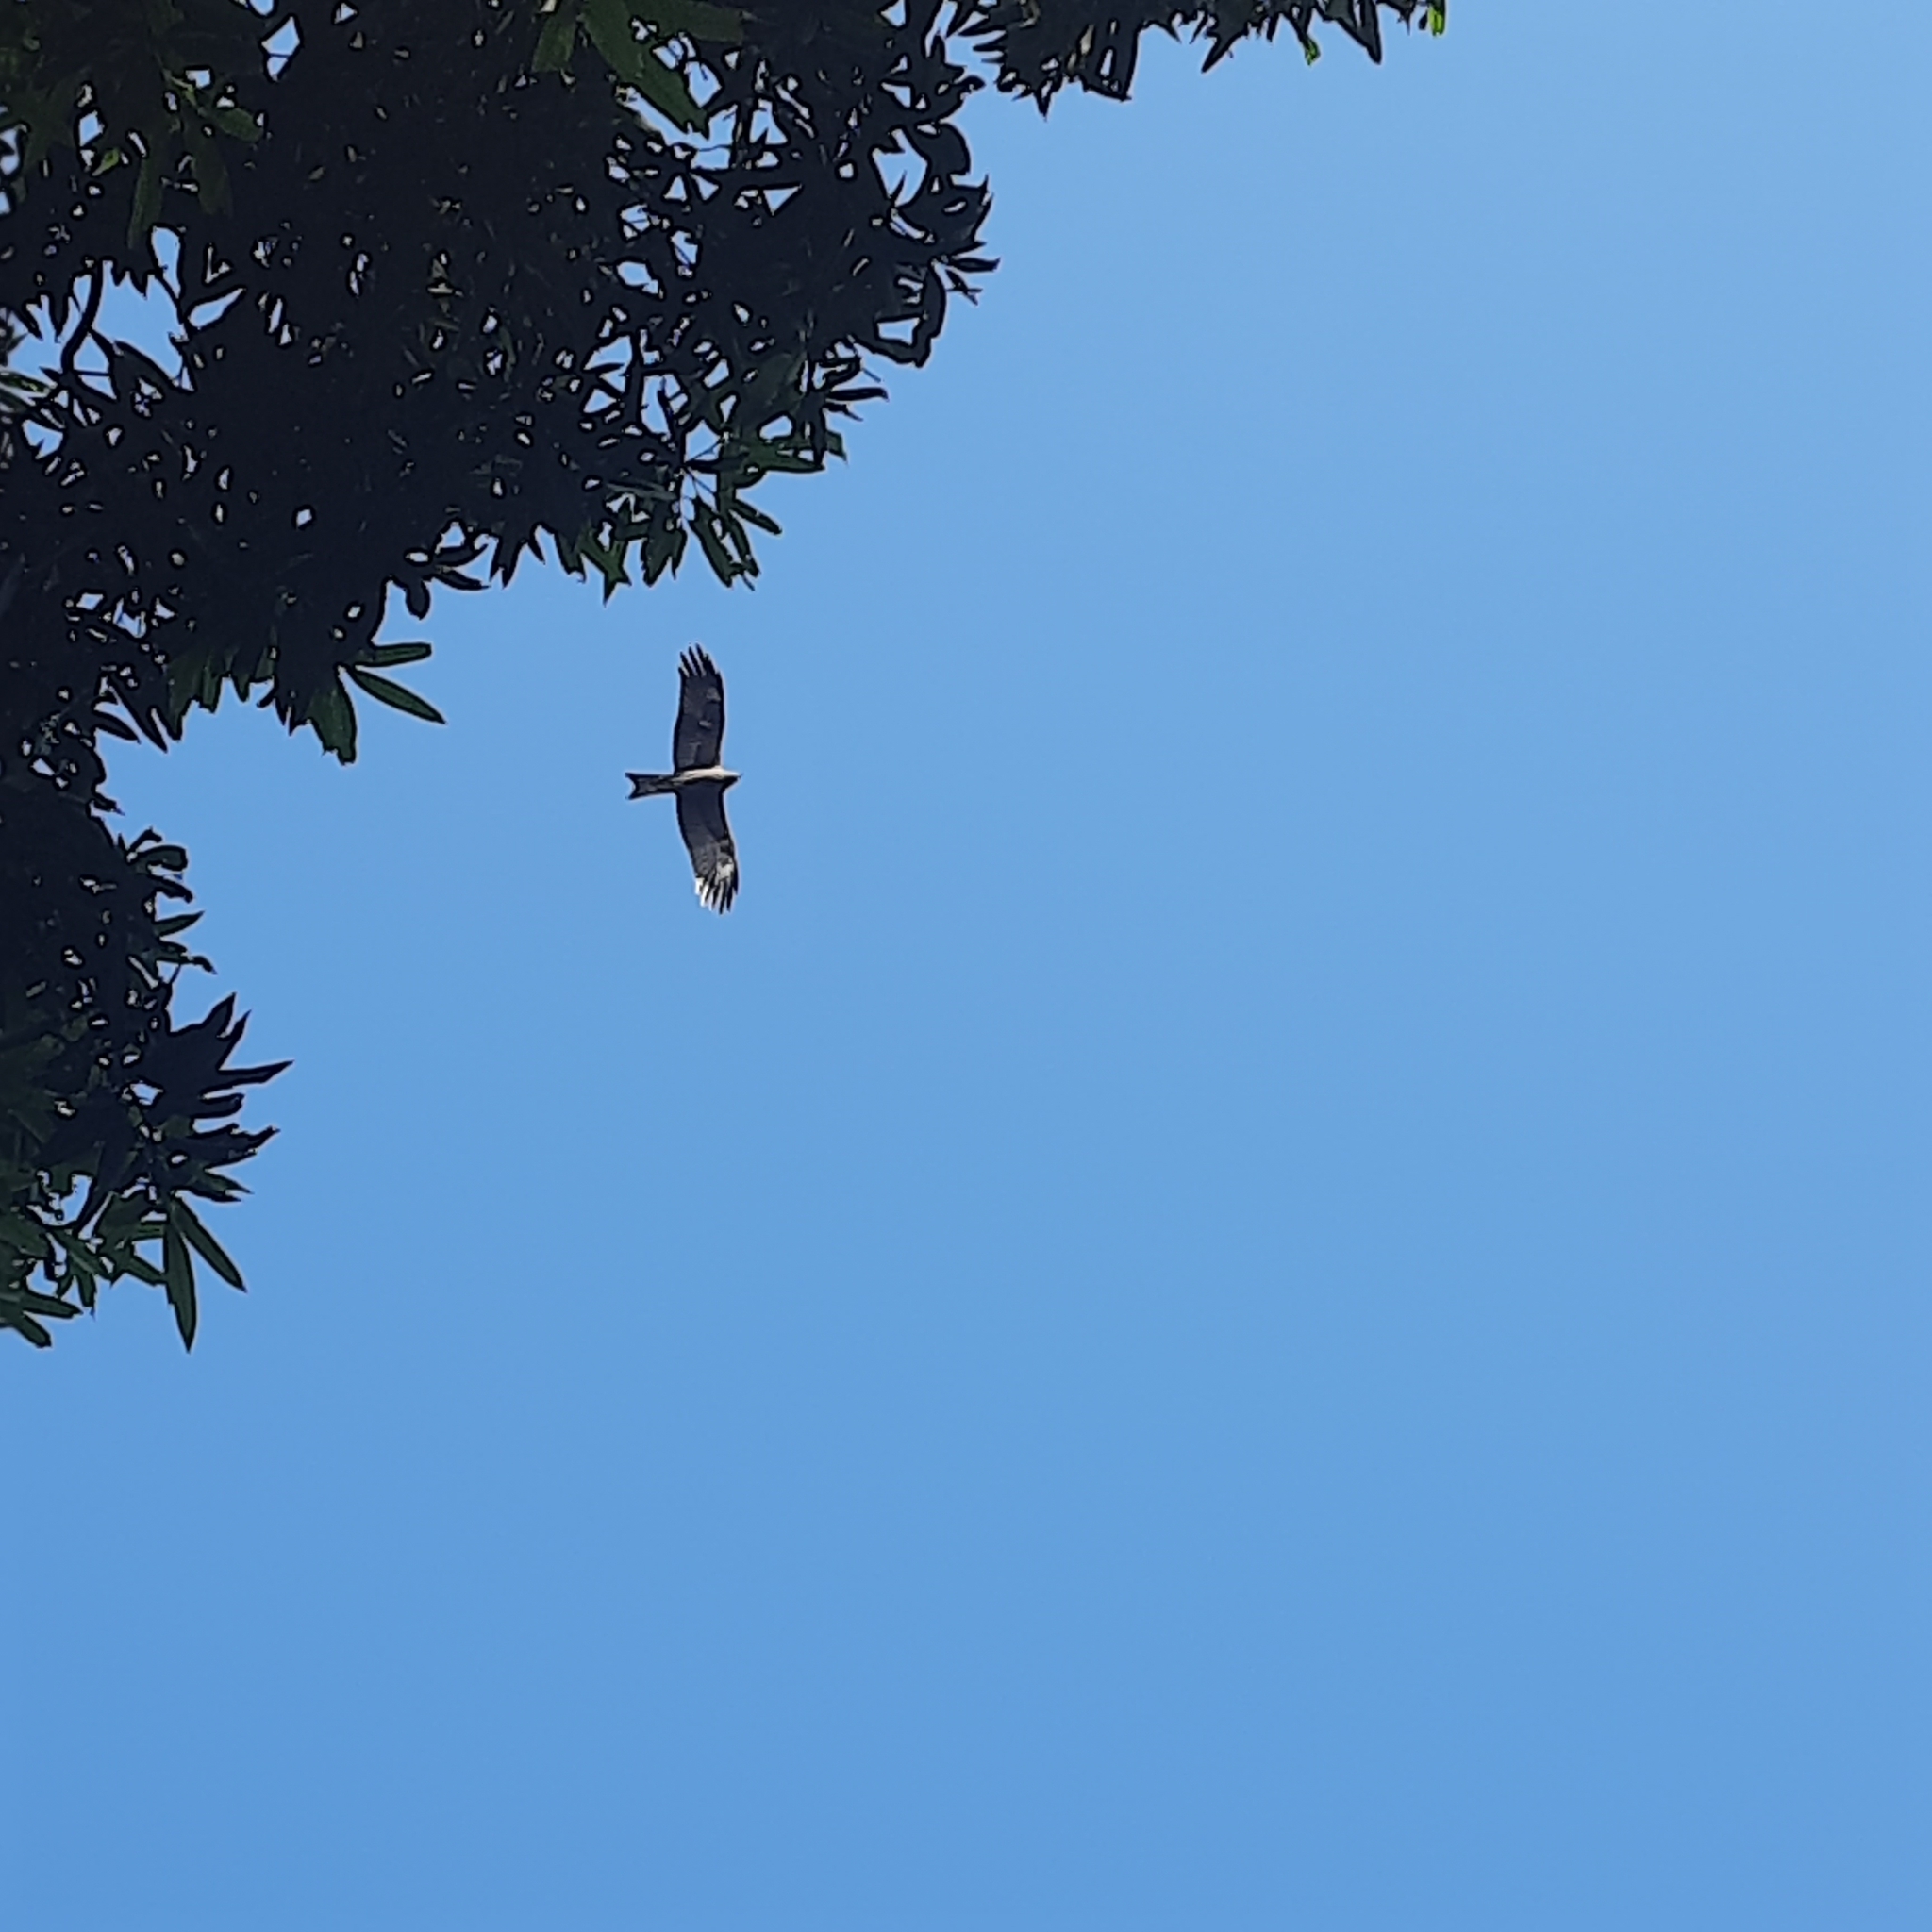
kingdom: Animalia
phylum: Chordata
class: Aves
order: Accipitriformes
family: Accipitridae
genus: Milvus
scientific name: Milvus migrans
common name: Black kite
